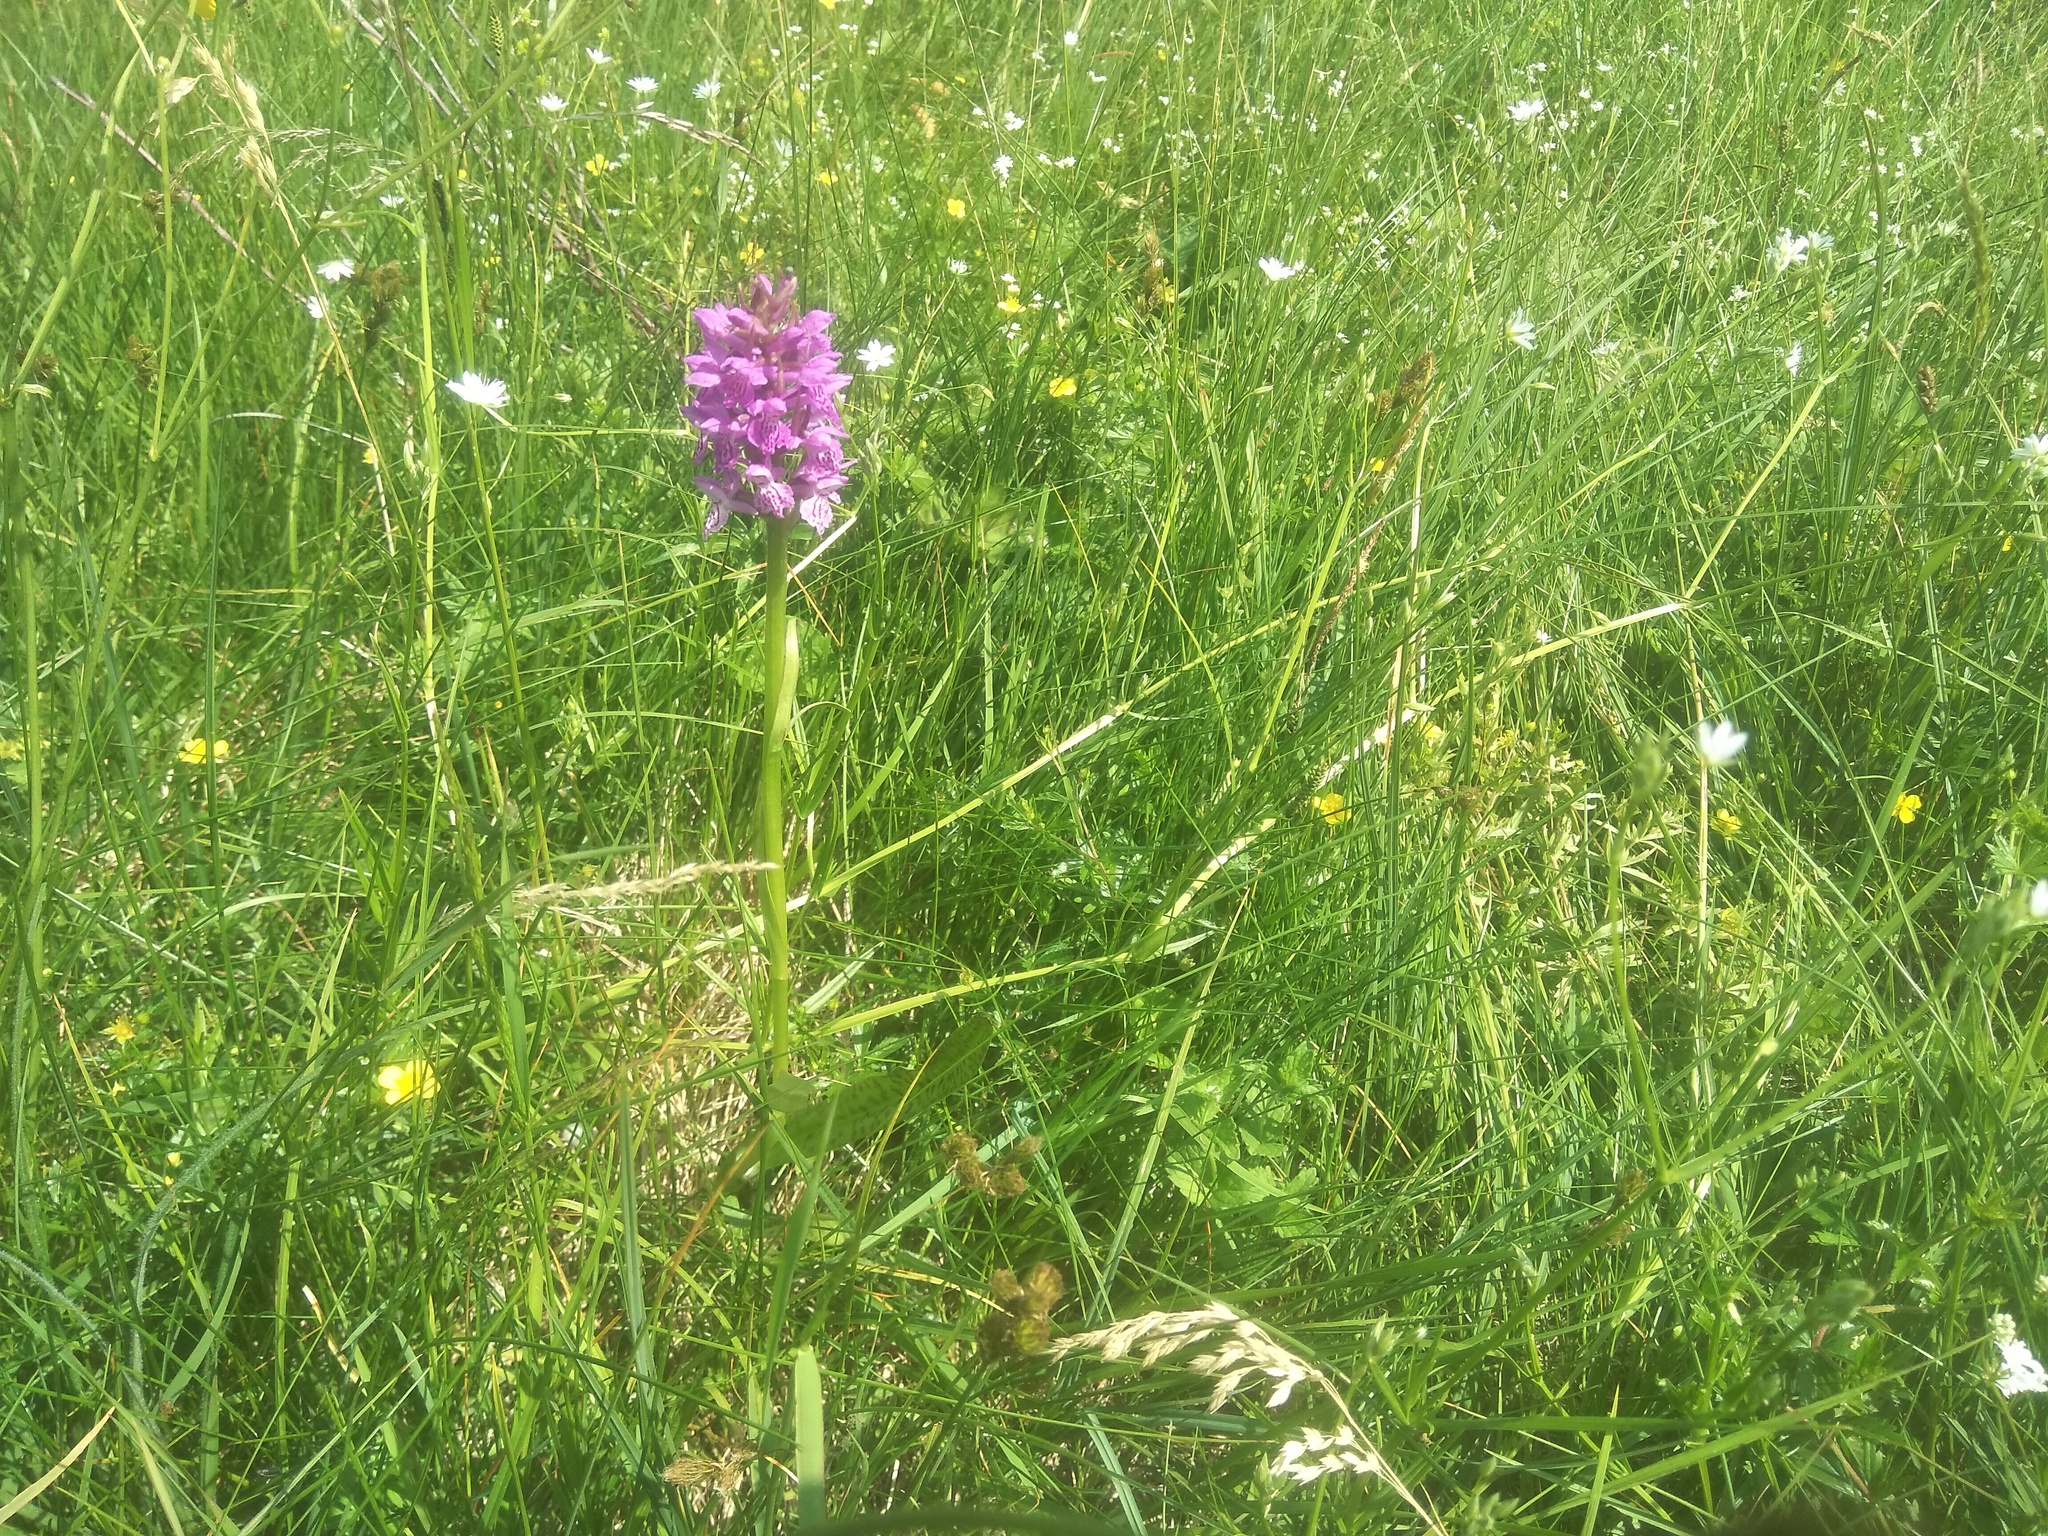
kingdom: Plantae
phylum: Tracheophyta
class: Liliopsida
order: Asparagales
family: Orchidaceae
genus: Dactylorhiza
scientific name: Dactylorhiza majalis
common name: Marsh orchid
